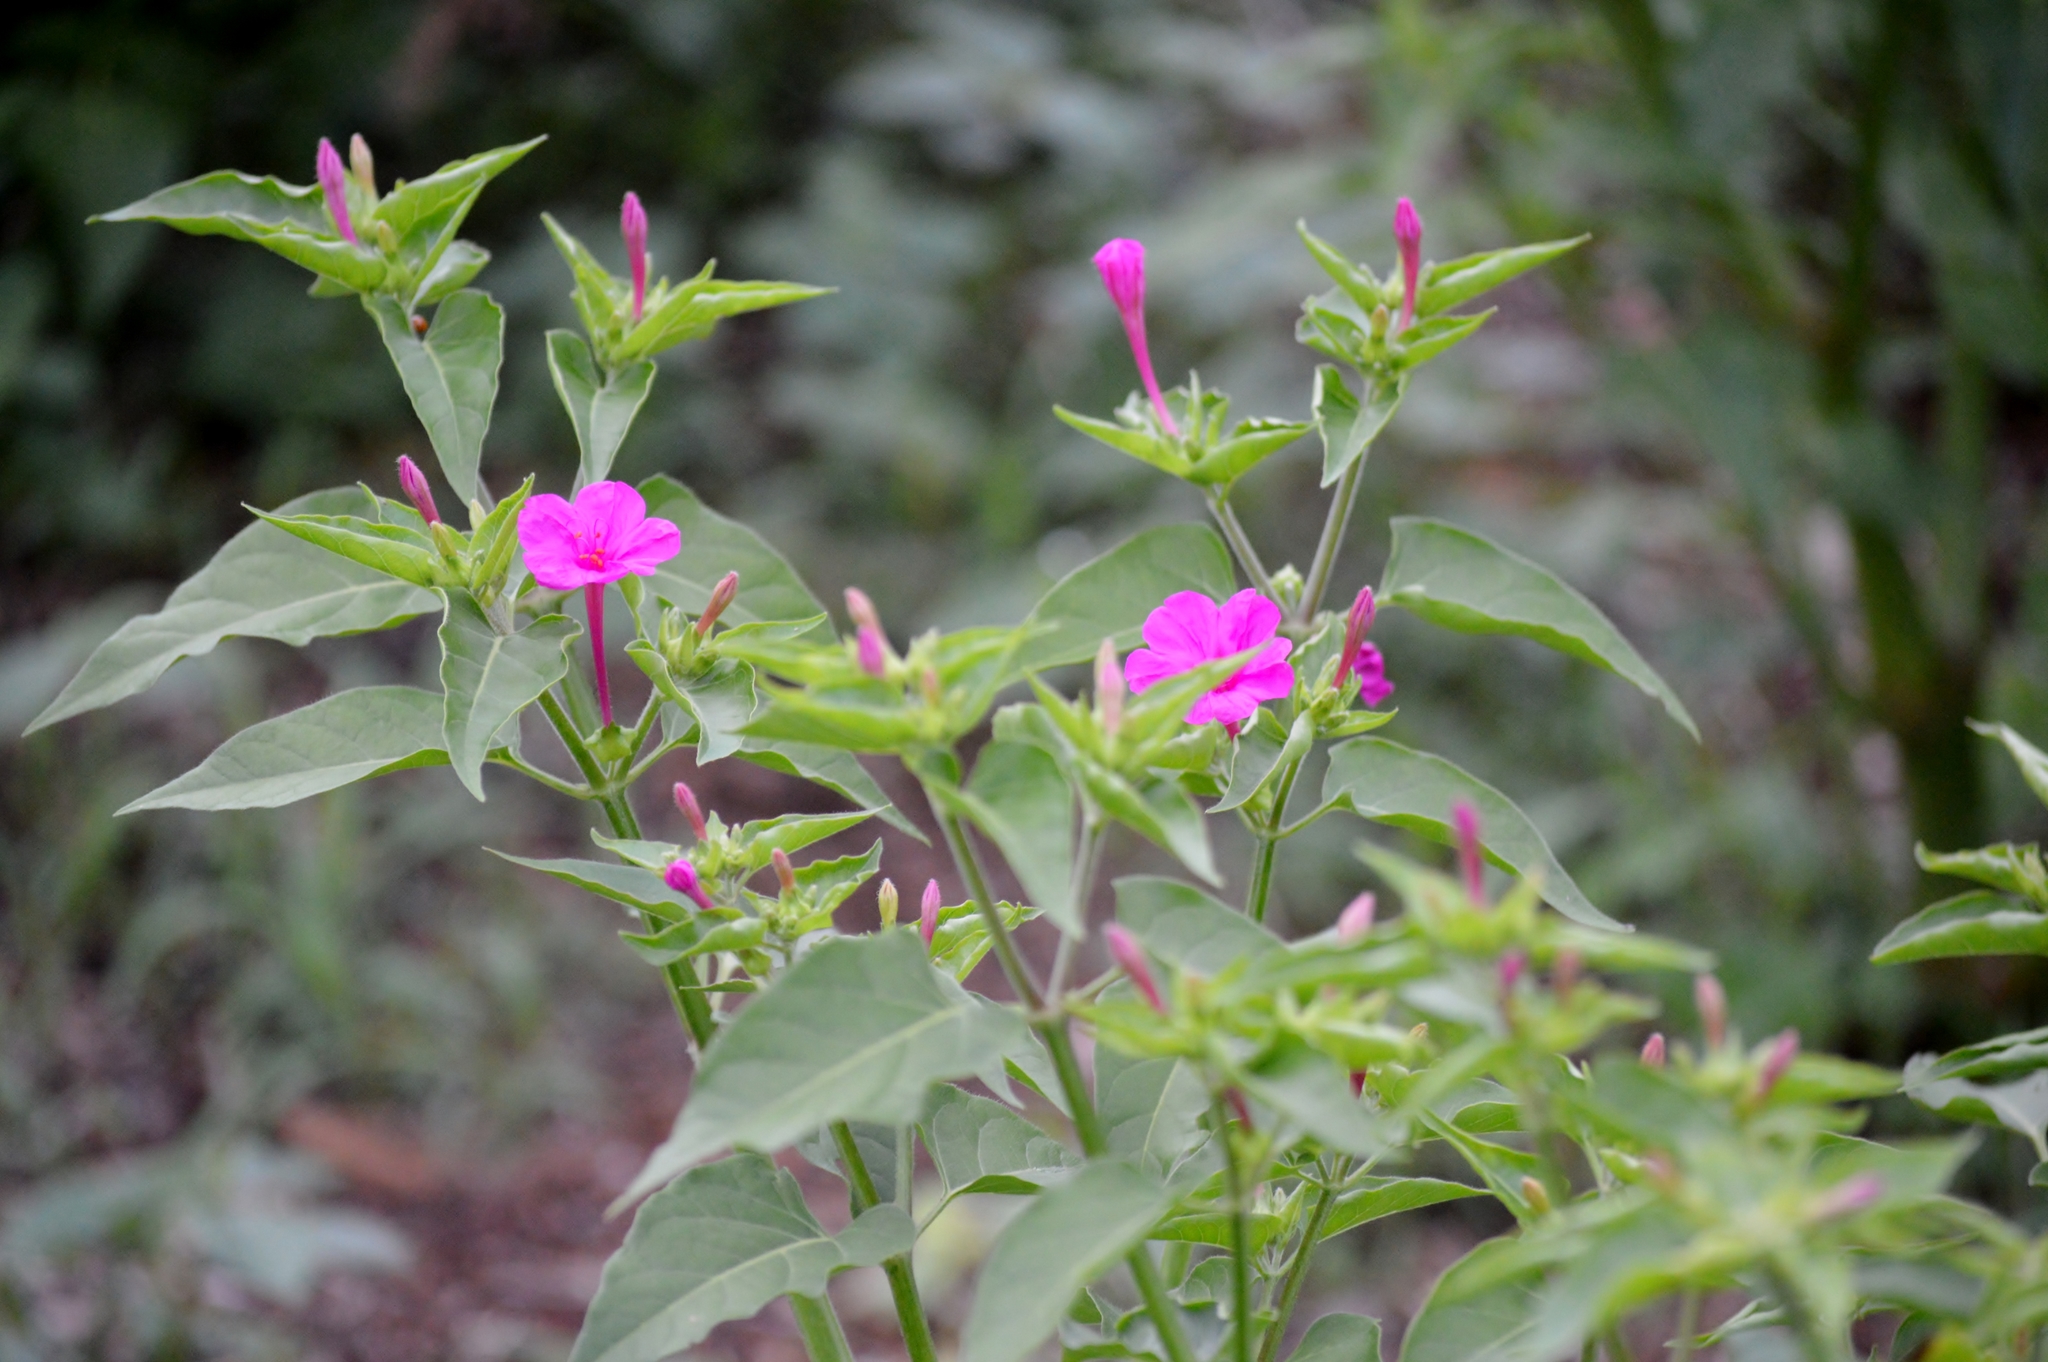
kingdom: Plantae
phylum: Tracheophyta
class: Magnoliopsida
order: Caryophyllales
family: Nyctaginaceae
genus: Mirabilis
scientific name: Mirabilis jalapa
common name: Marvel-of-peru
